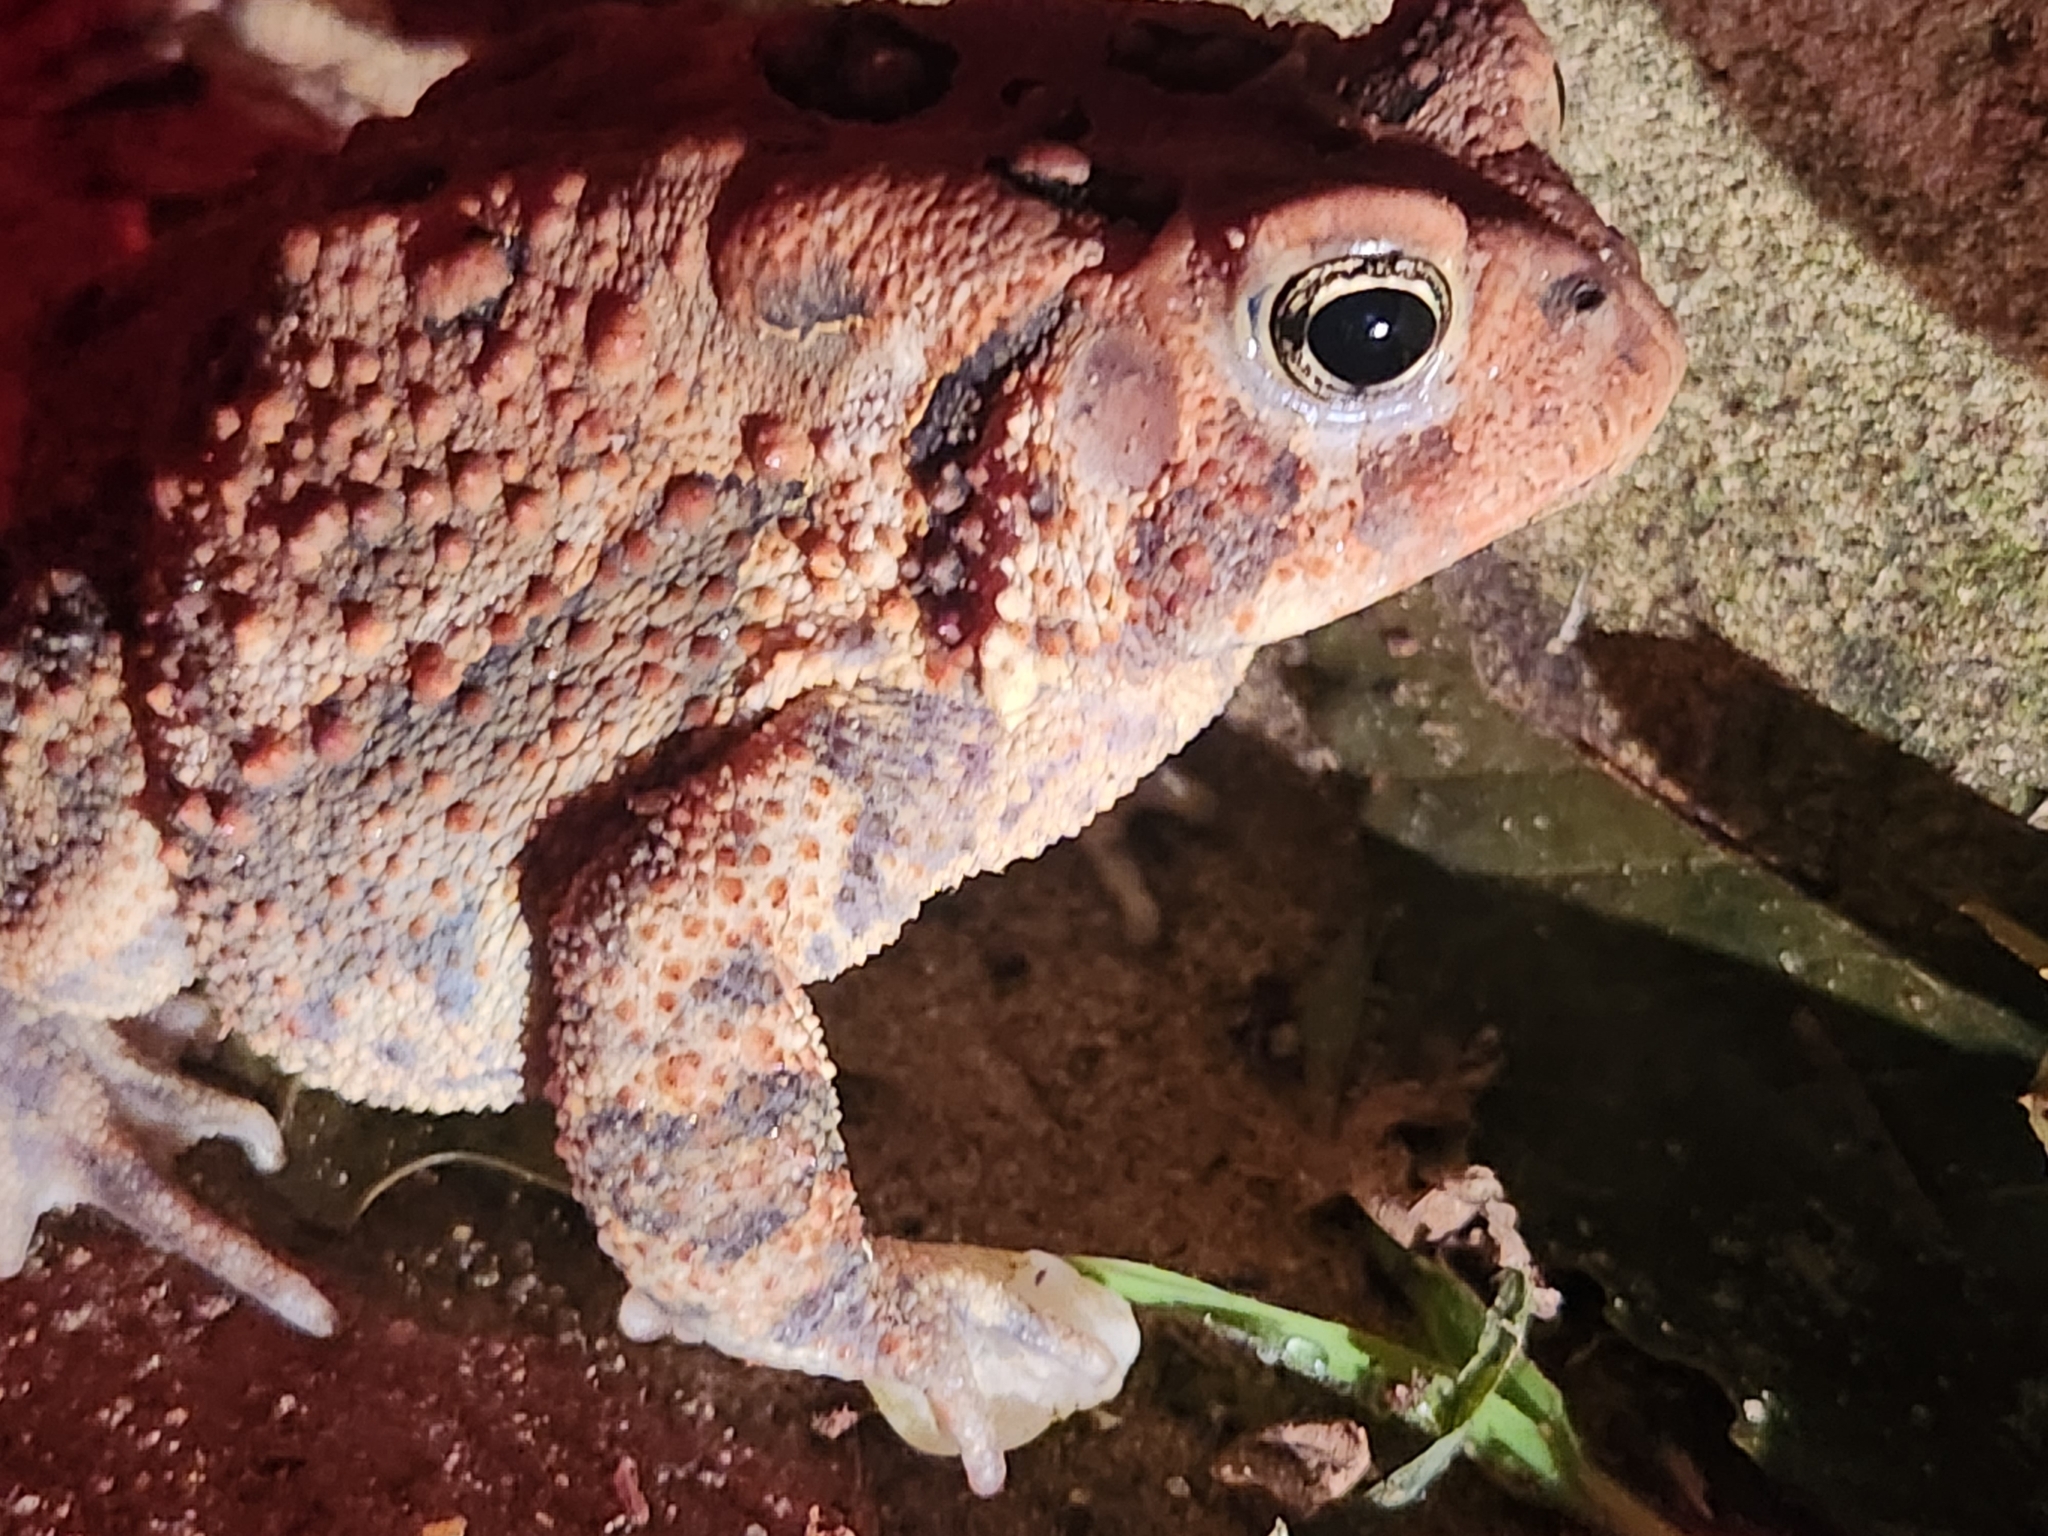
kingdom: Animalia
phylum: Chordata
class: Amphibia
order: Anura
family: Bufonidae
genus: Anaxyrus
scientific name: Anaxyrus americanus
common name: American toad
